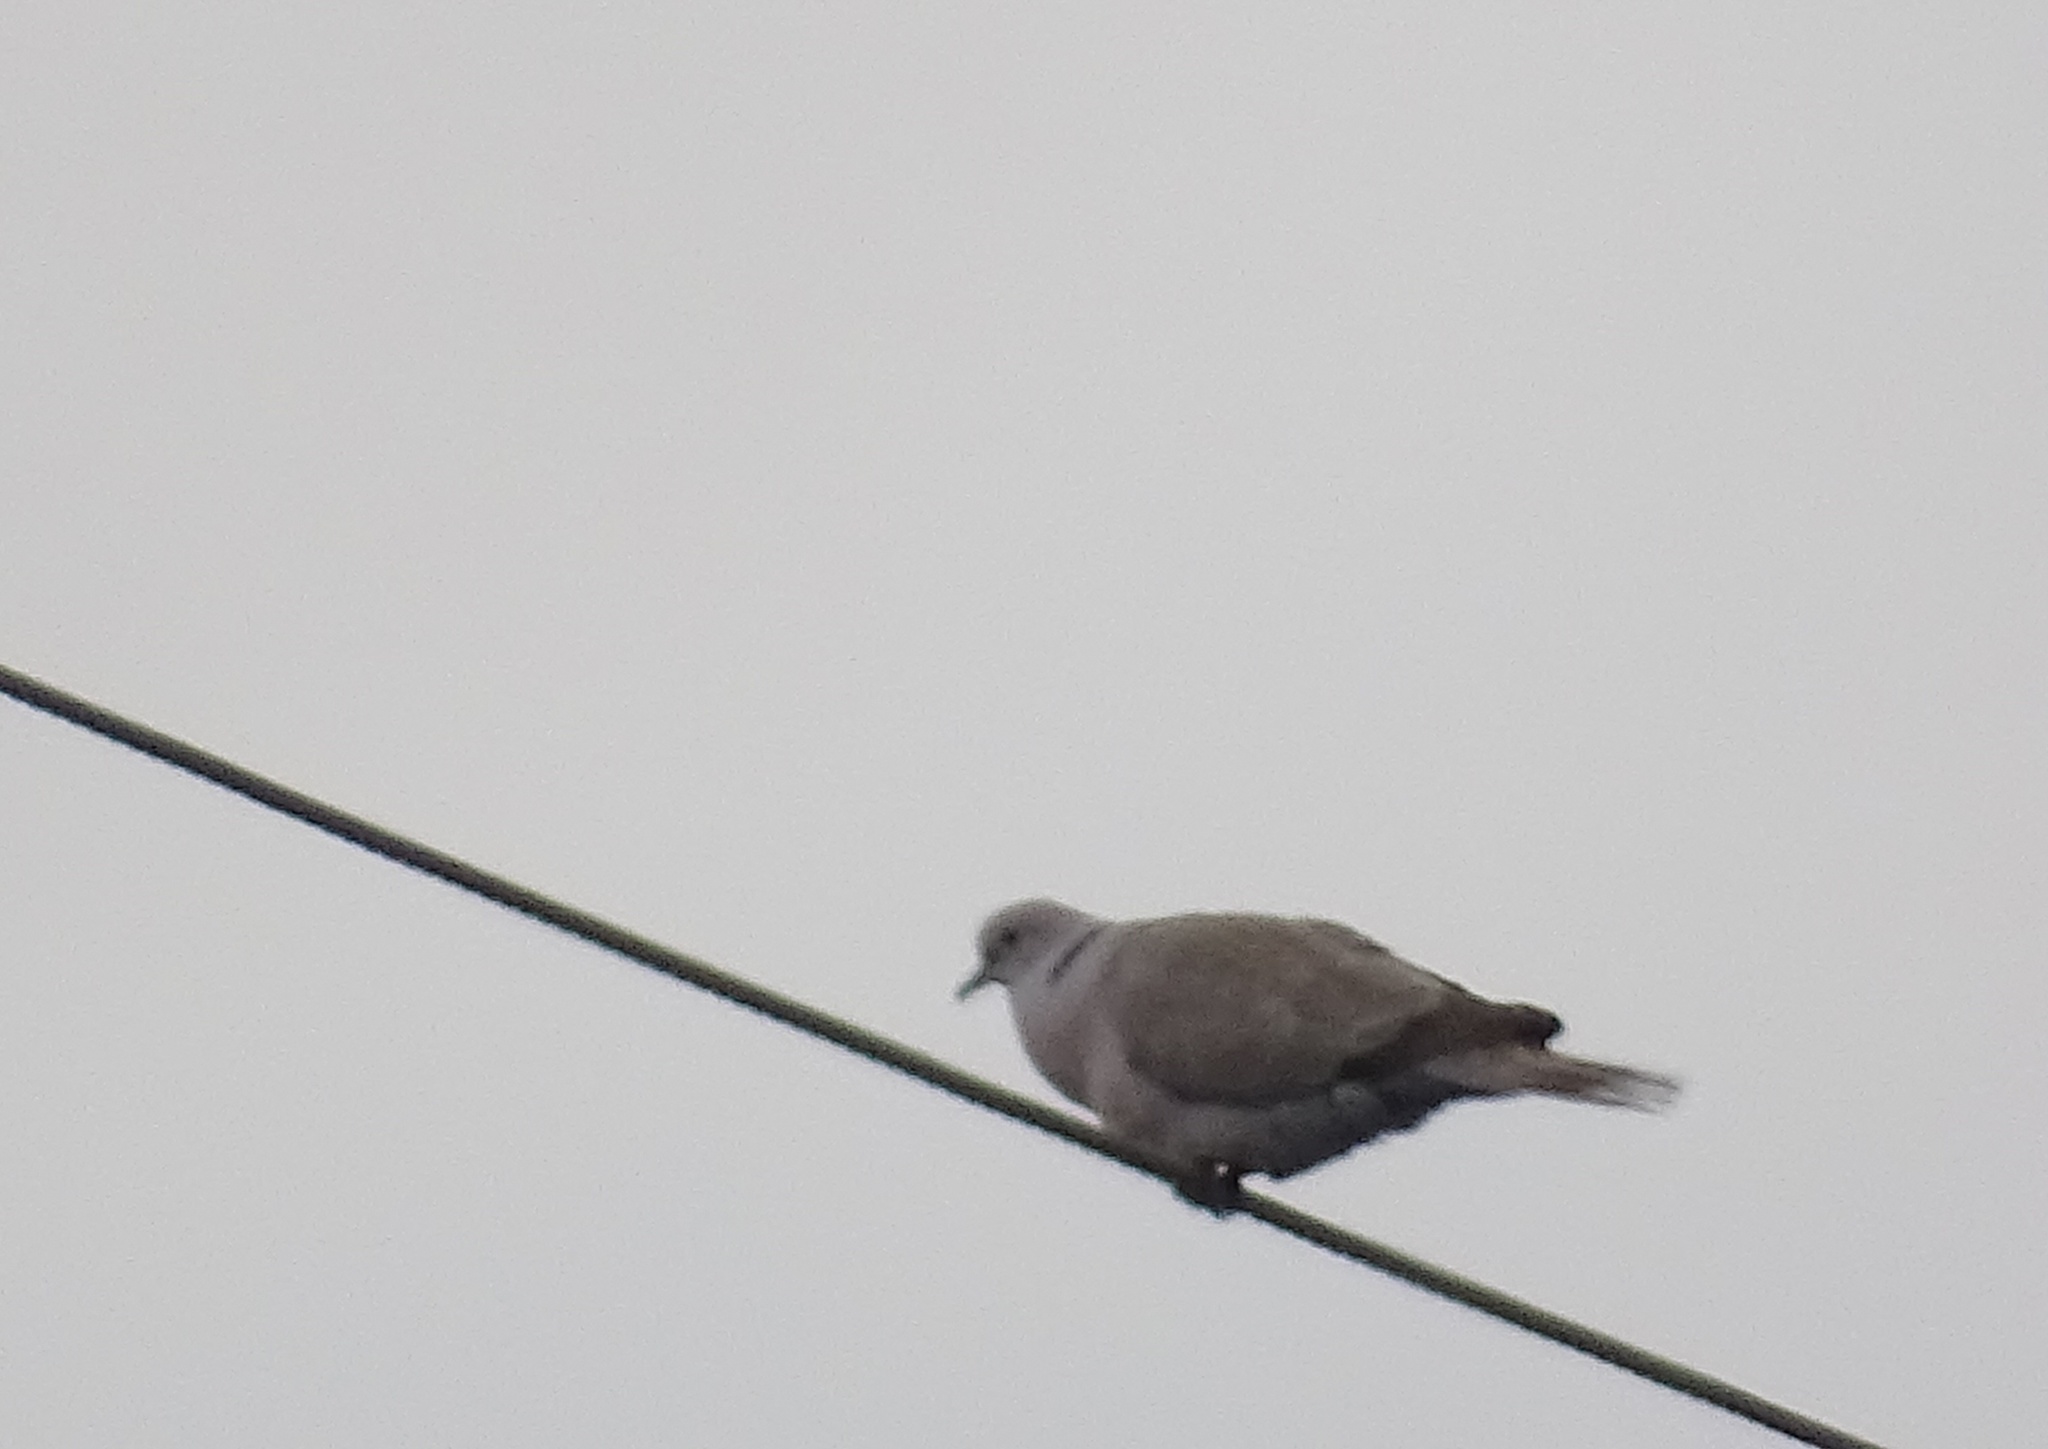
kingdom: Animalia
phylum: Chordata
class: Aves
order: Columbiformes
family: Columbidae
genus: Streptopelia
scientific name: Streptopelia decaocto
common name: Eurasian collared dove
